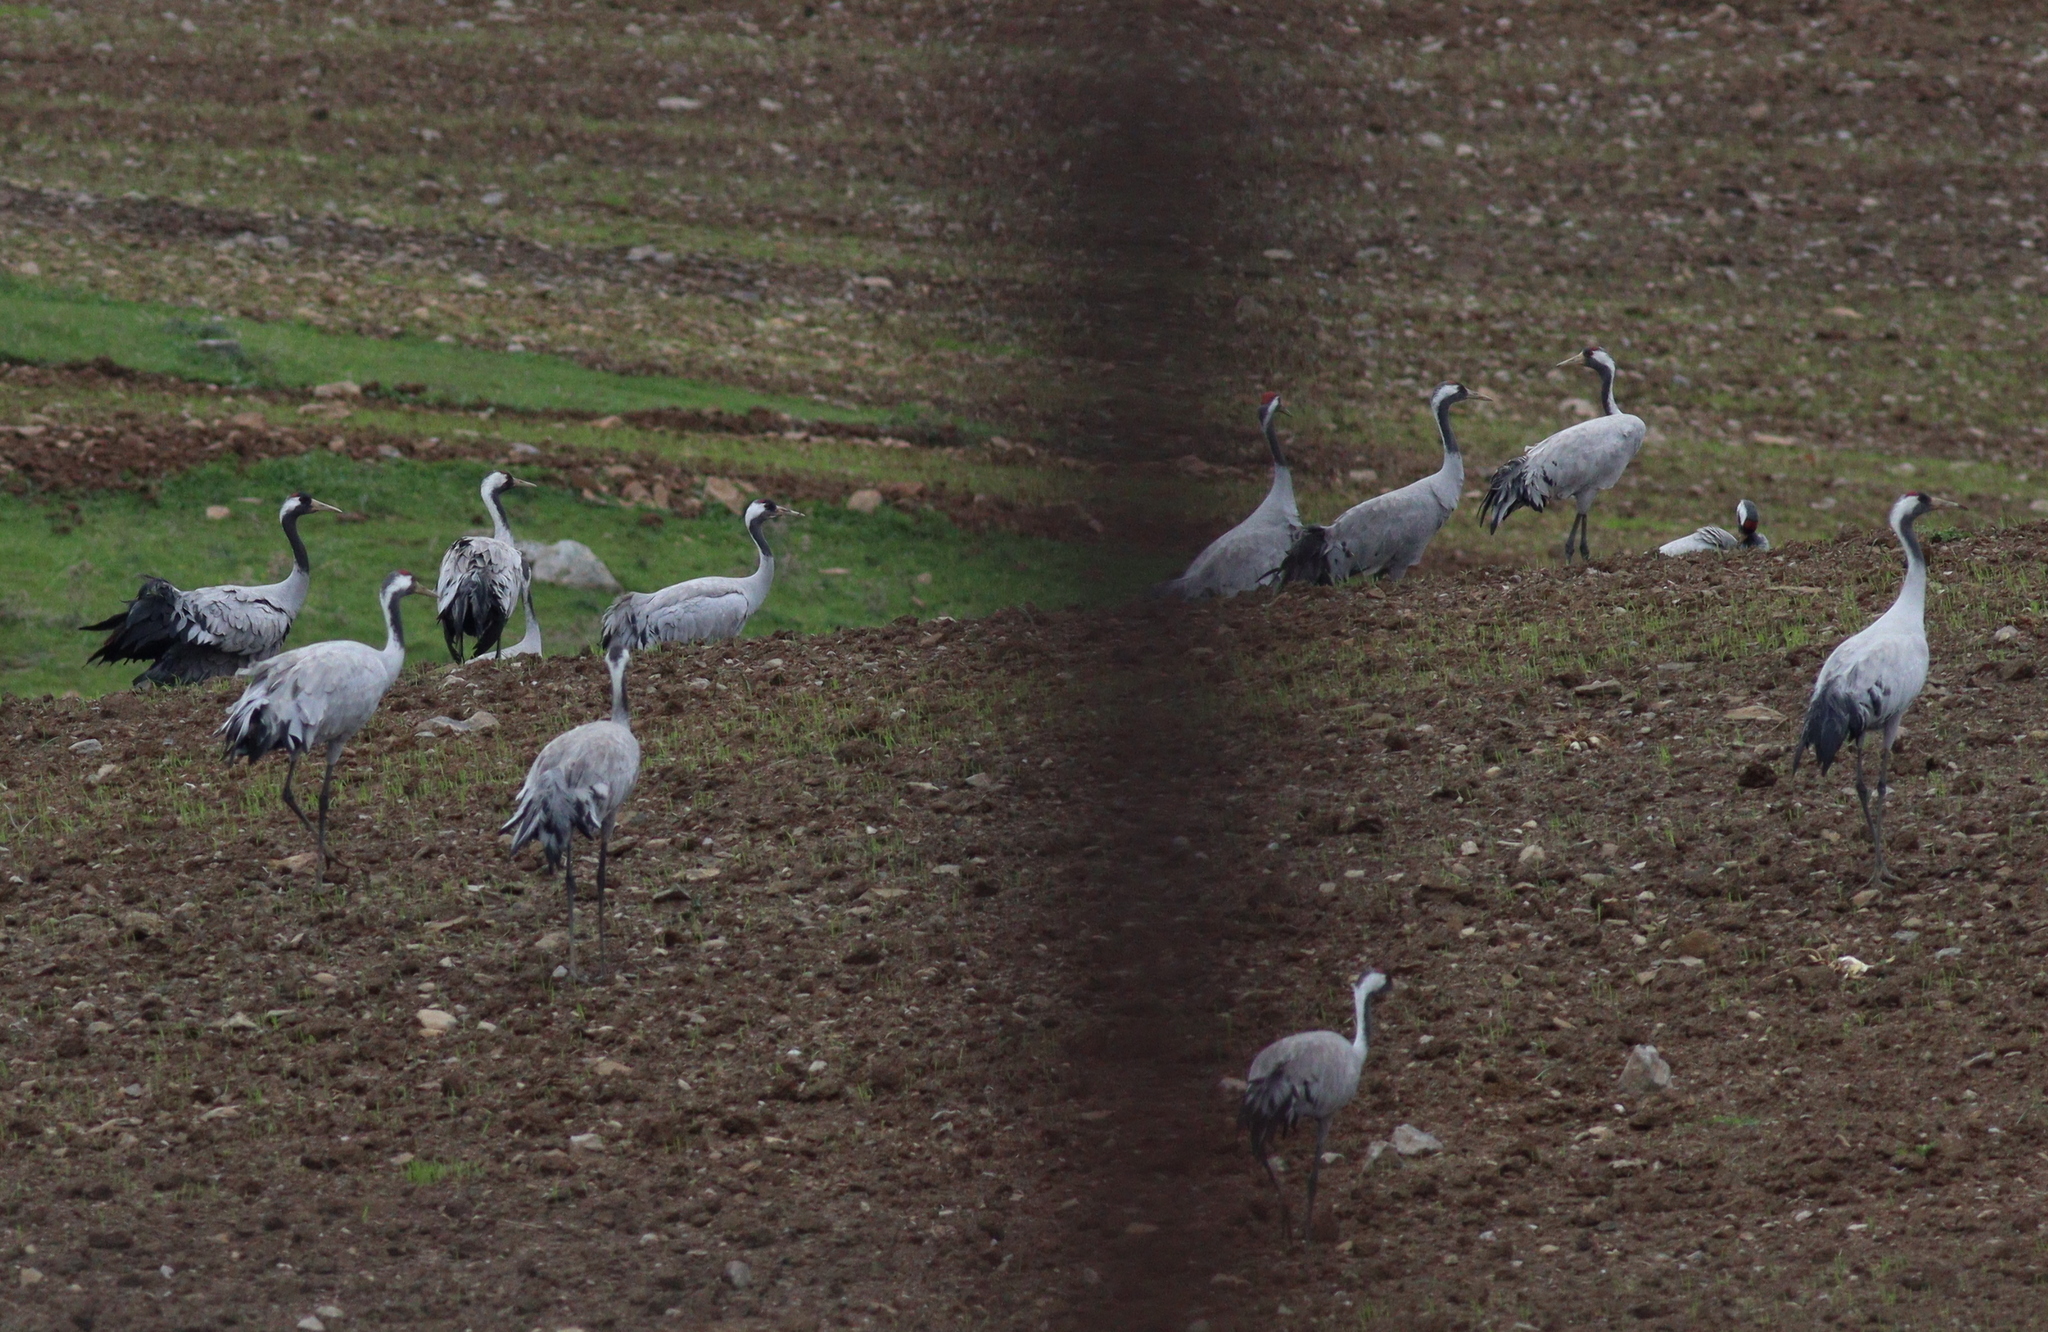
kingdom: Animalia
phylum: Chordata
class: Aves
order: Gruiformes
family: Gruidae
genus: Grus
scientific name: Grus grus
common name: Common crane
